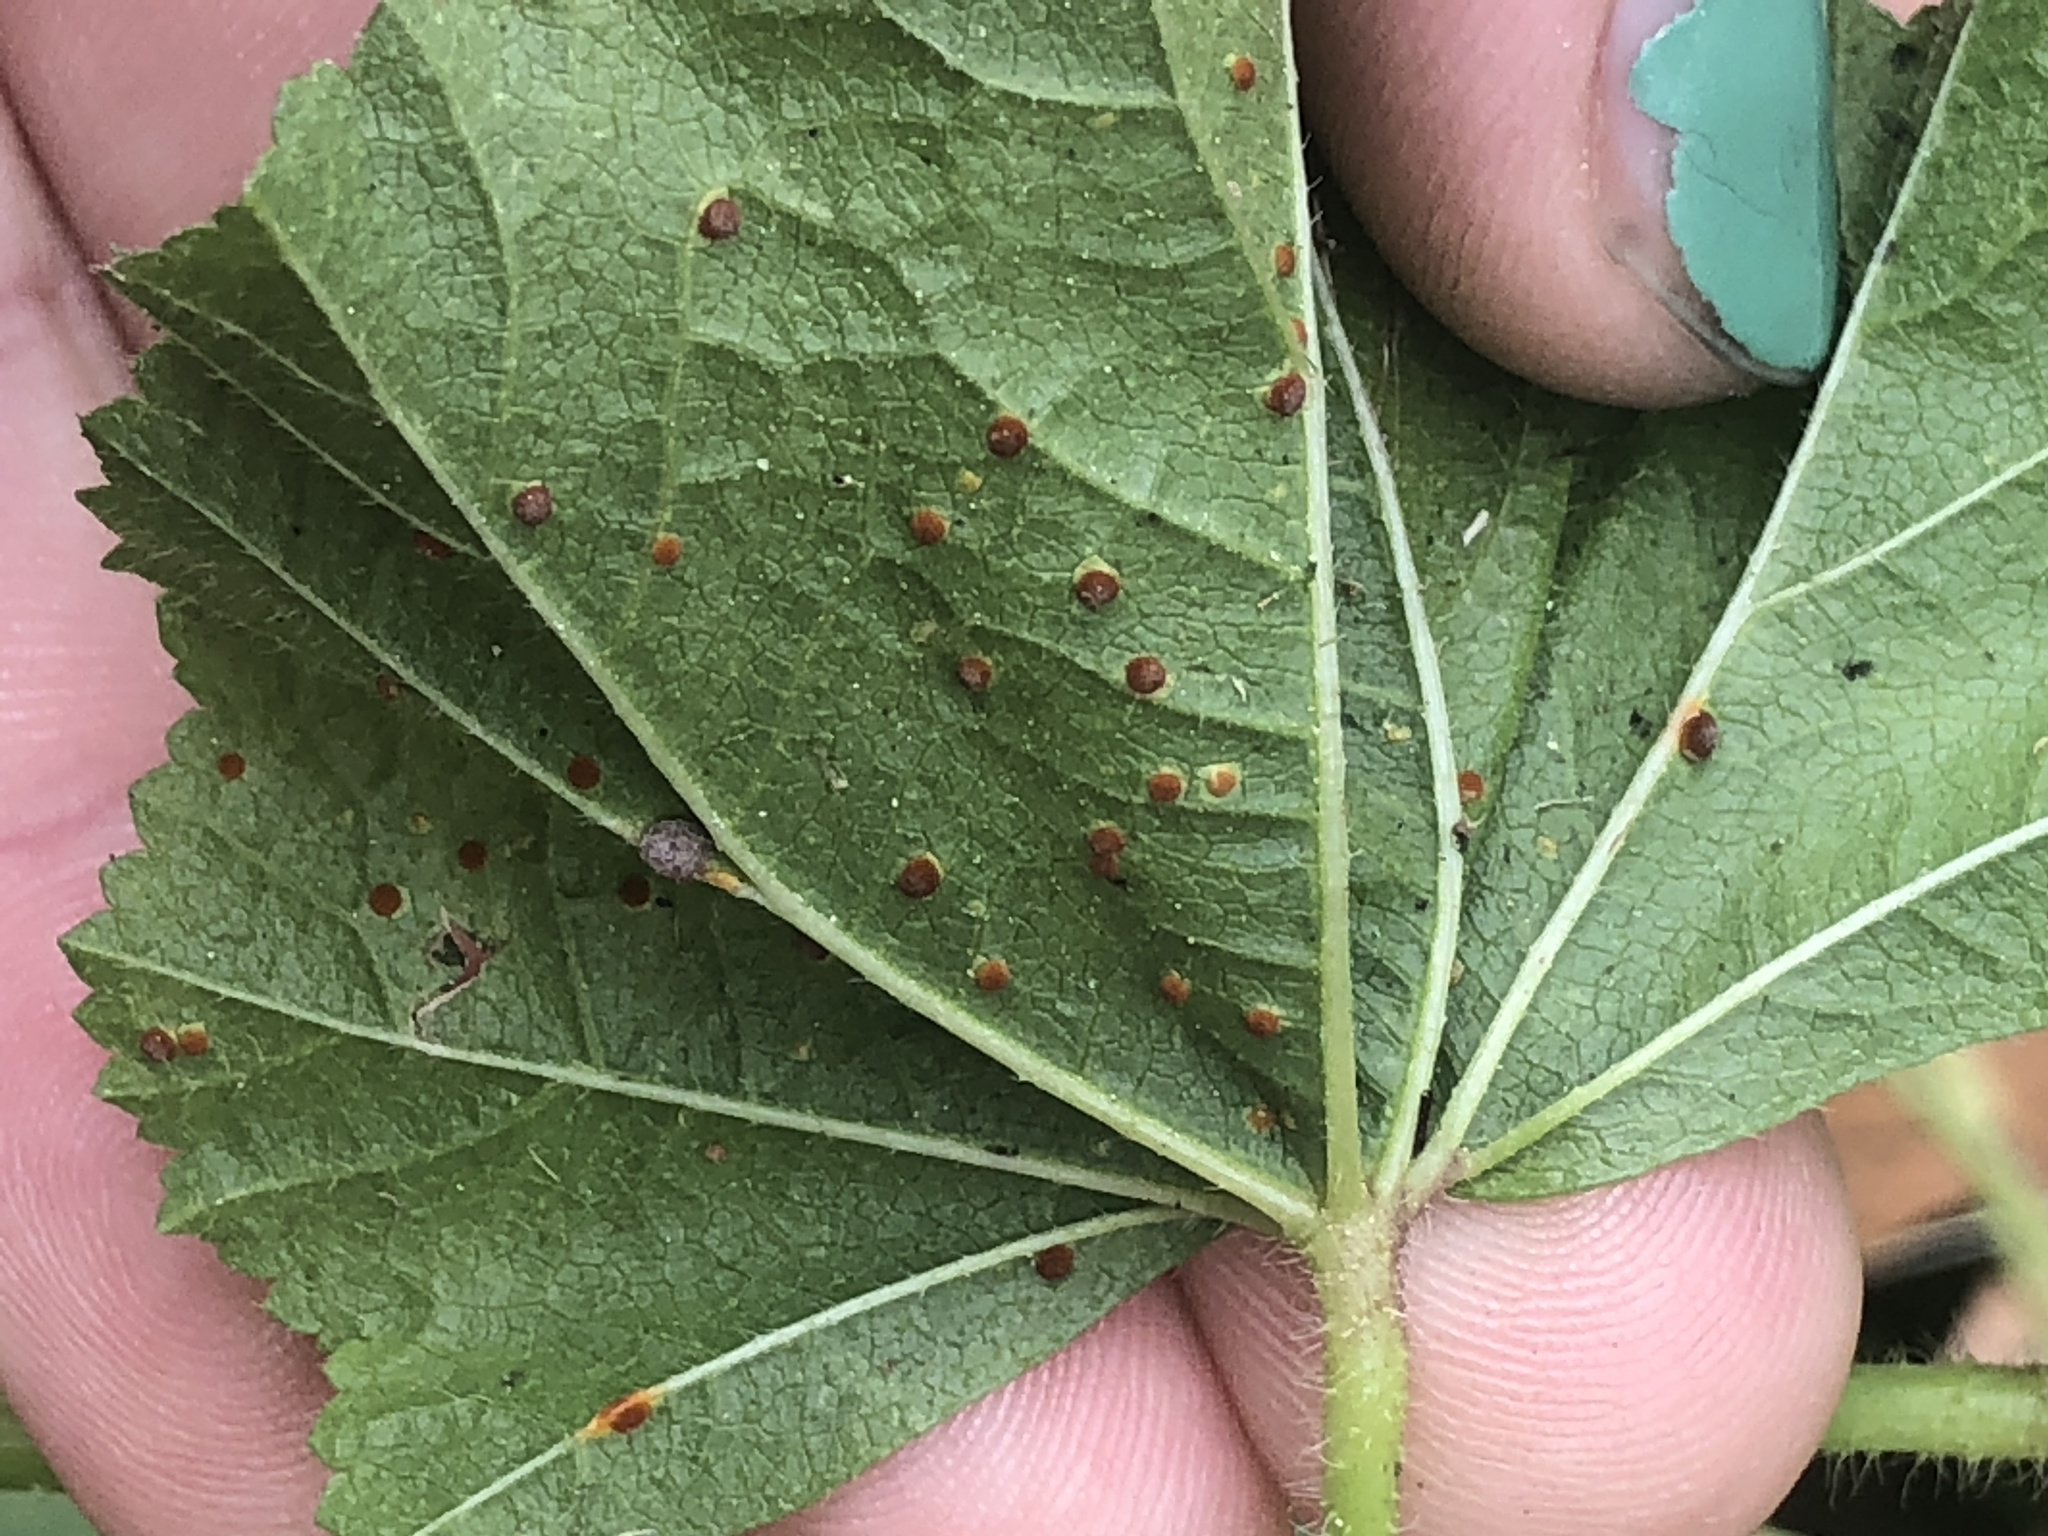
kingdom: Fungi
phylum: Basidiomycota
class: Pucciniomycetes
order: Pucciniales
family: Pucciniaceae
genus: Puccinia
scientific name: Puccinia malvacearum
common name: Hollyhock rust
